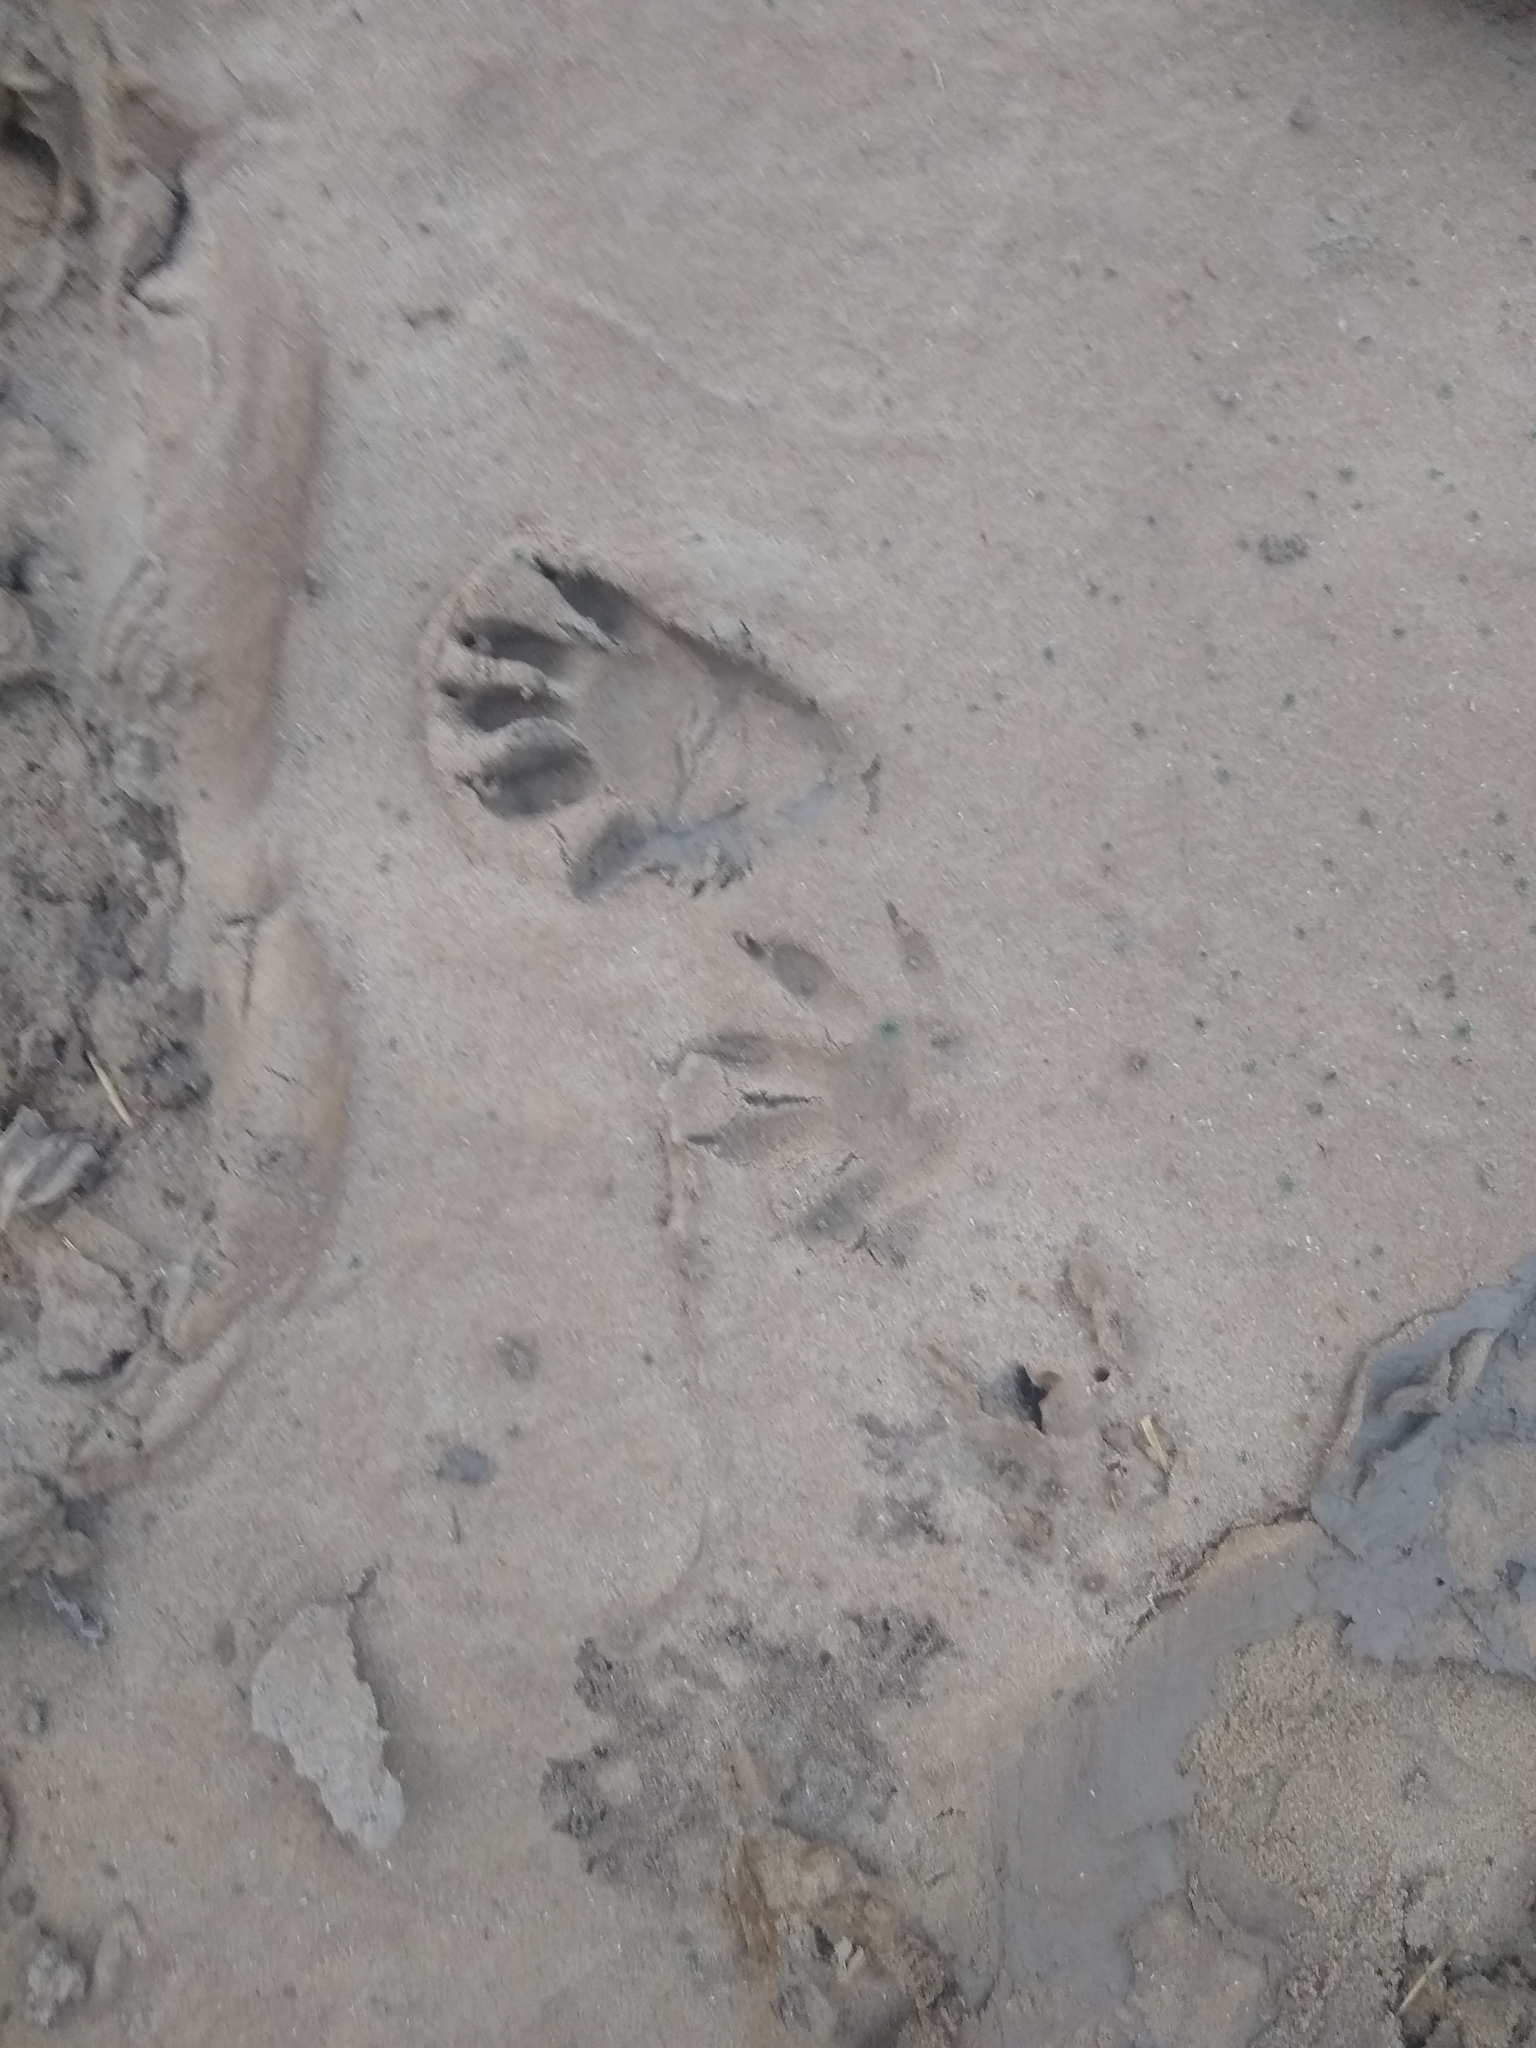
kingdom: Animalia
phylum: Chordata
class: Mammalia
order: Carnivora
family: Procyonidae
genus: Procyon
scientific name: Procyon lotor
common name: Raccoon
